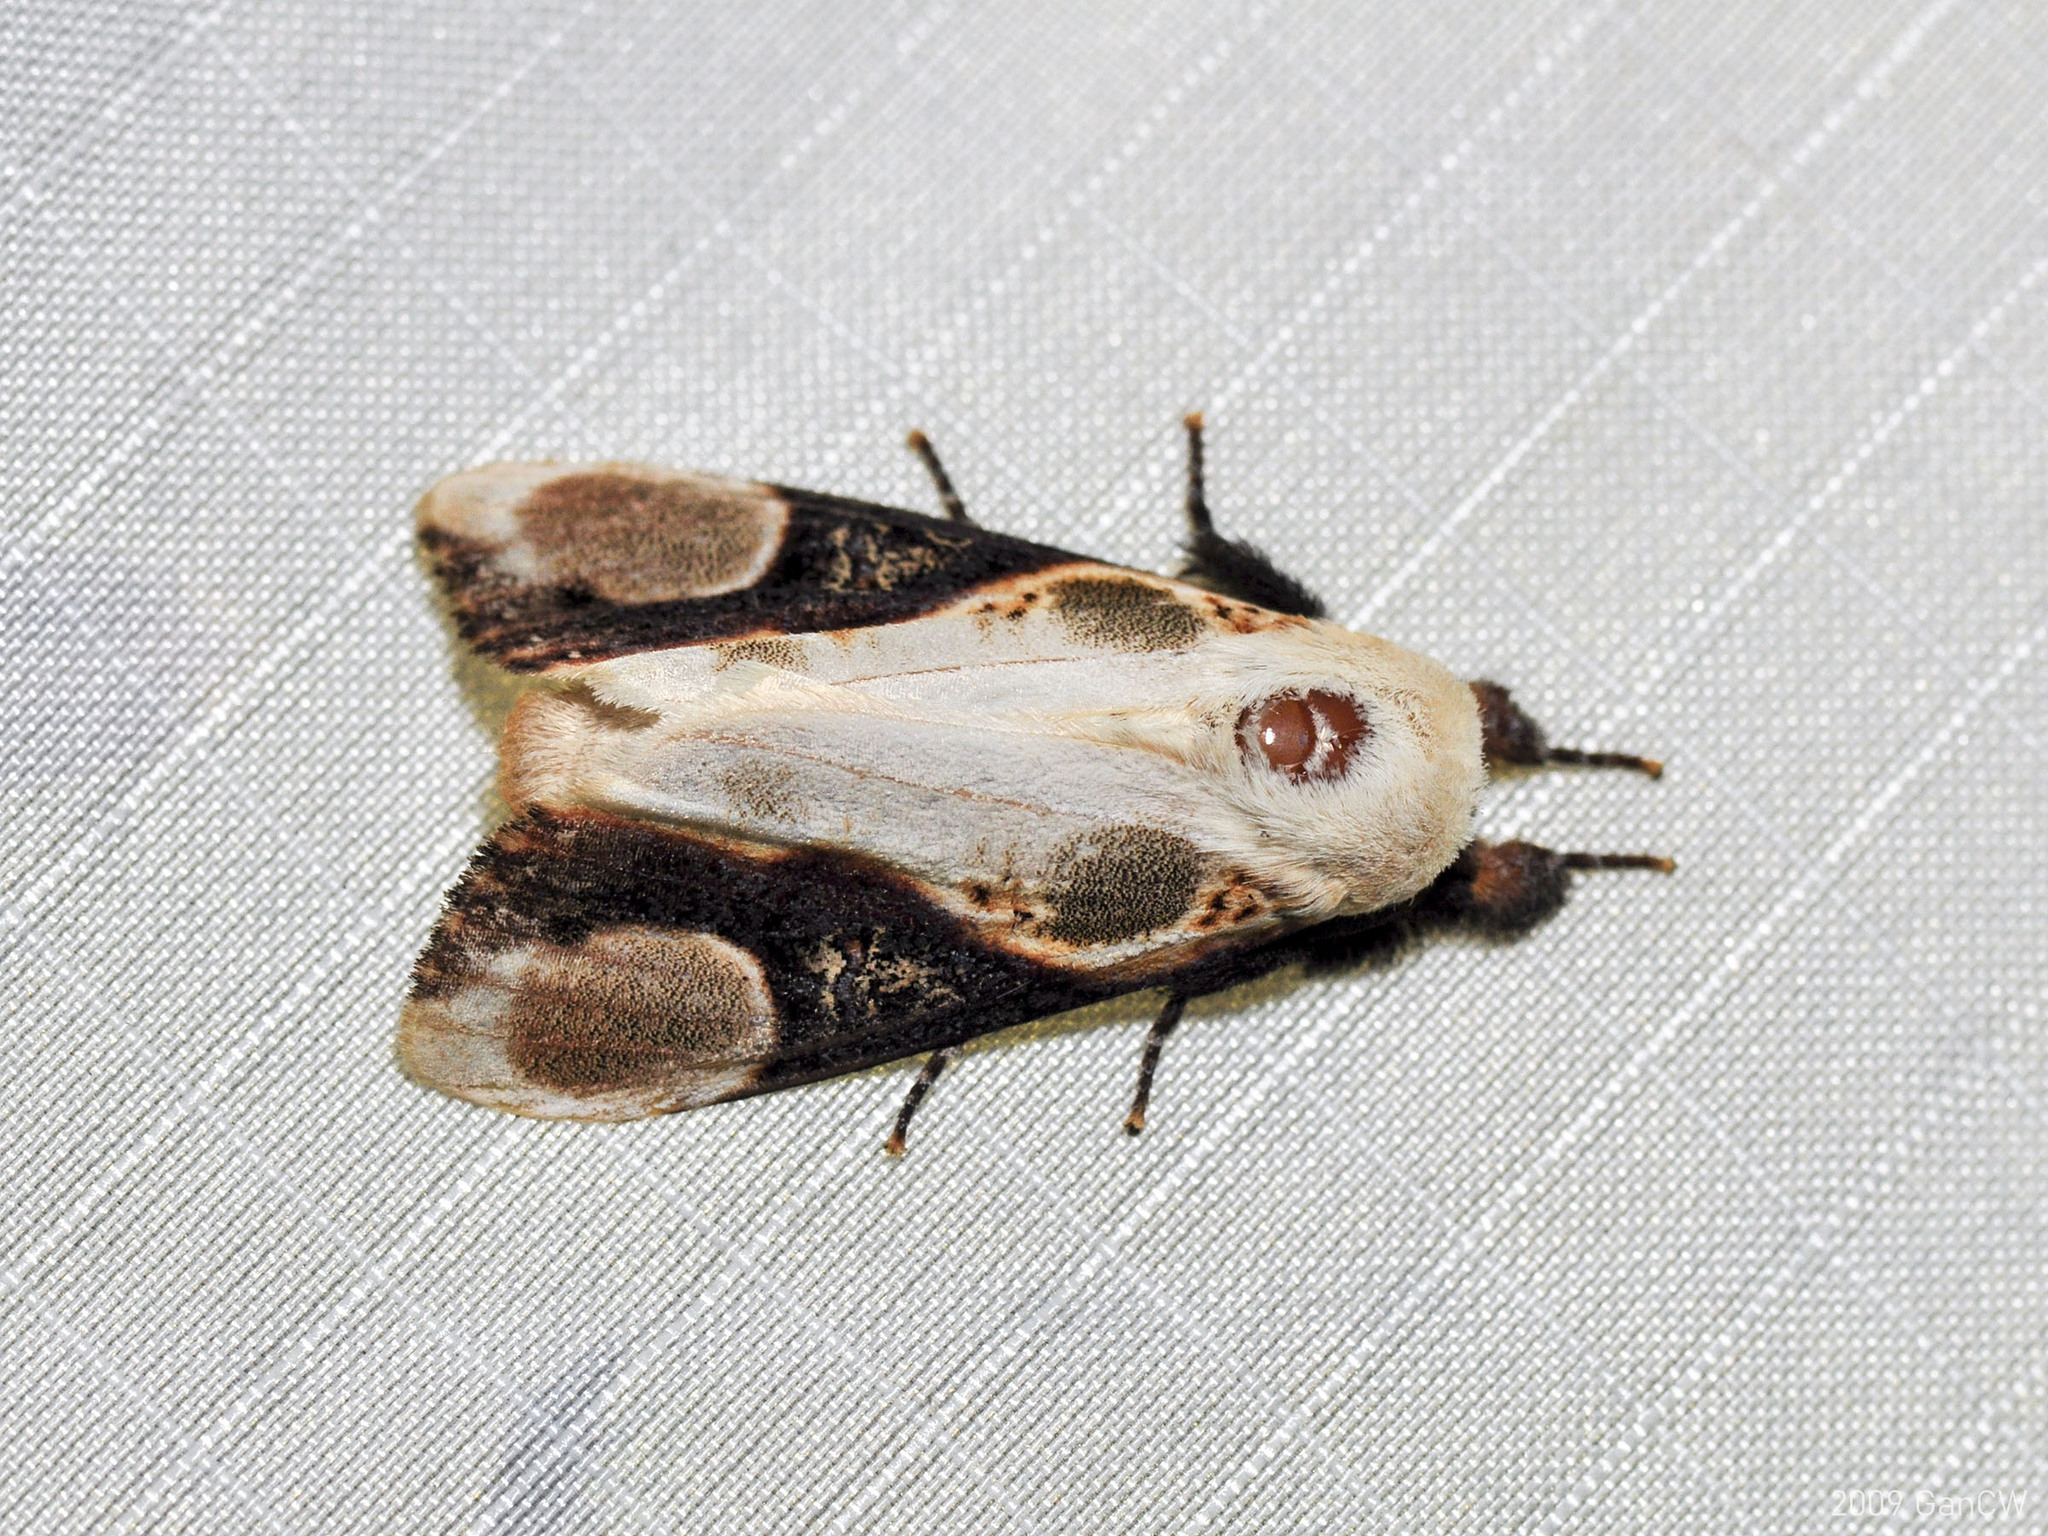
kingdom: Animalia
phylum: Arthropoda
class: Insecta
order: Lepidoptera
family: Notodontidae
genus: Formofentonia
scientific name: Formofentonia orbifer
